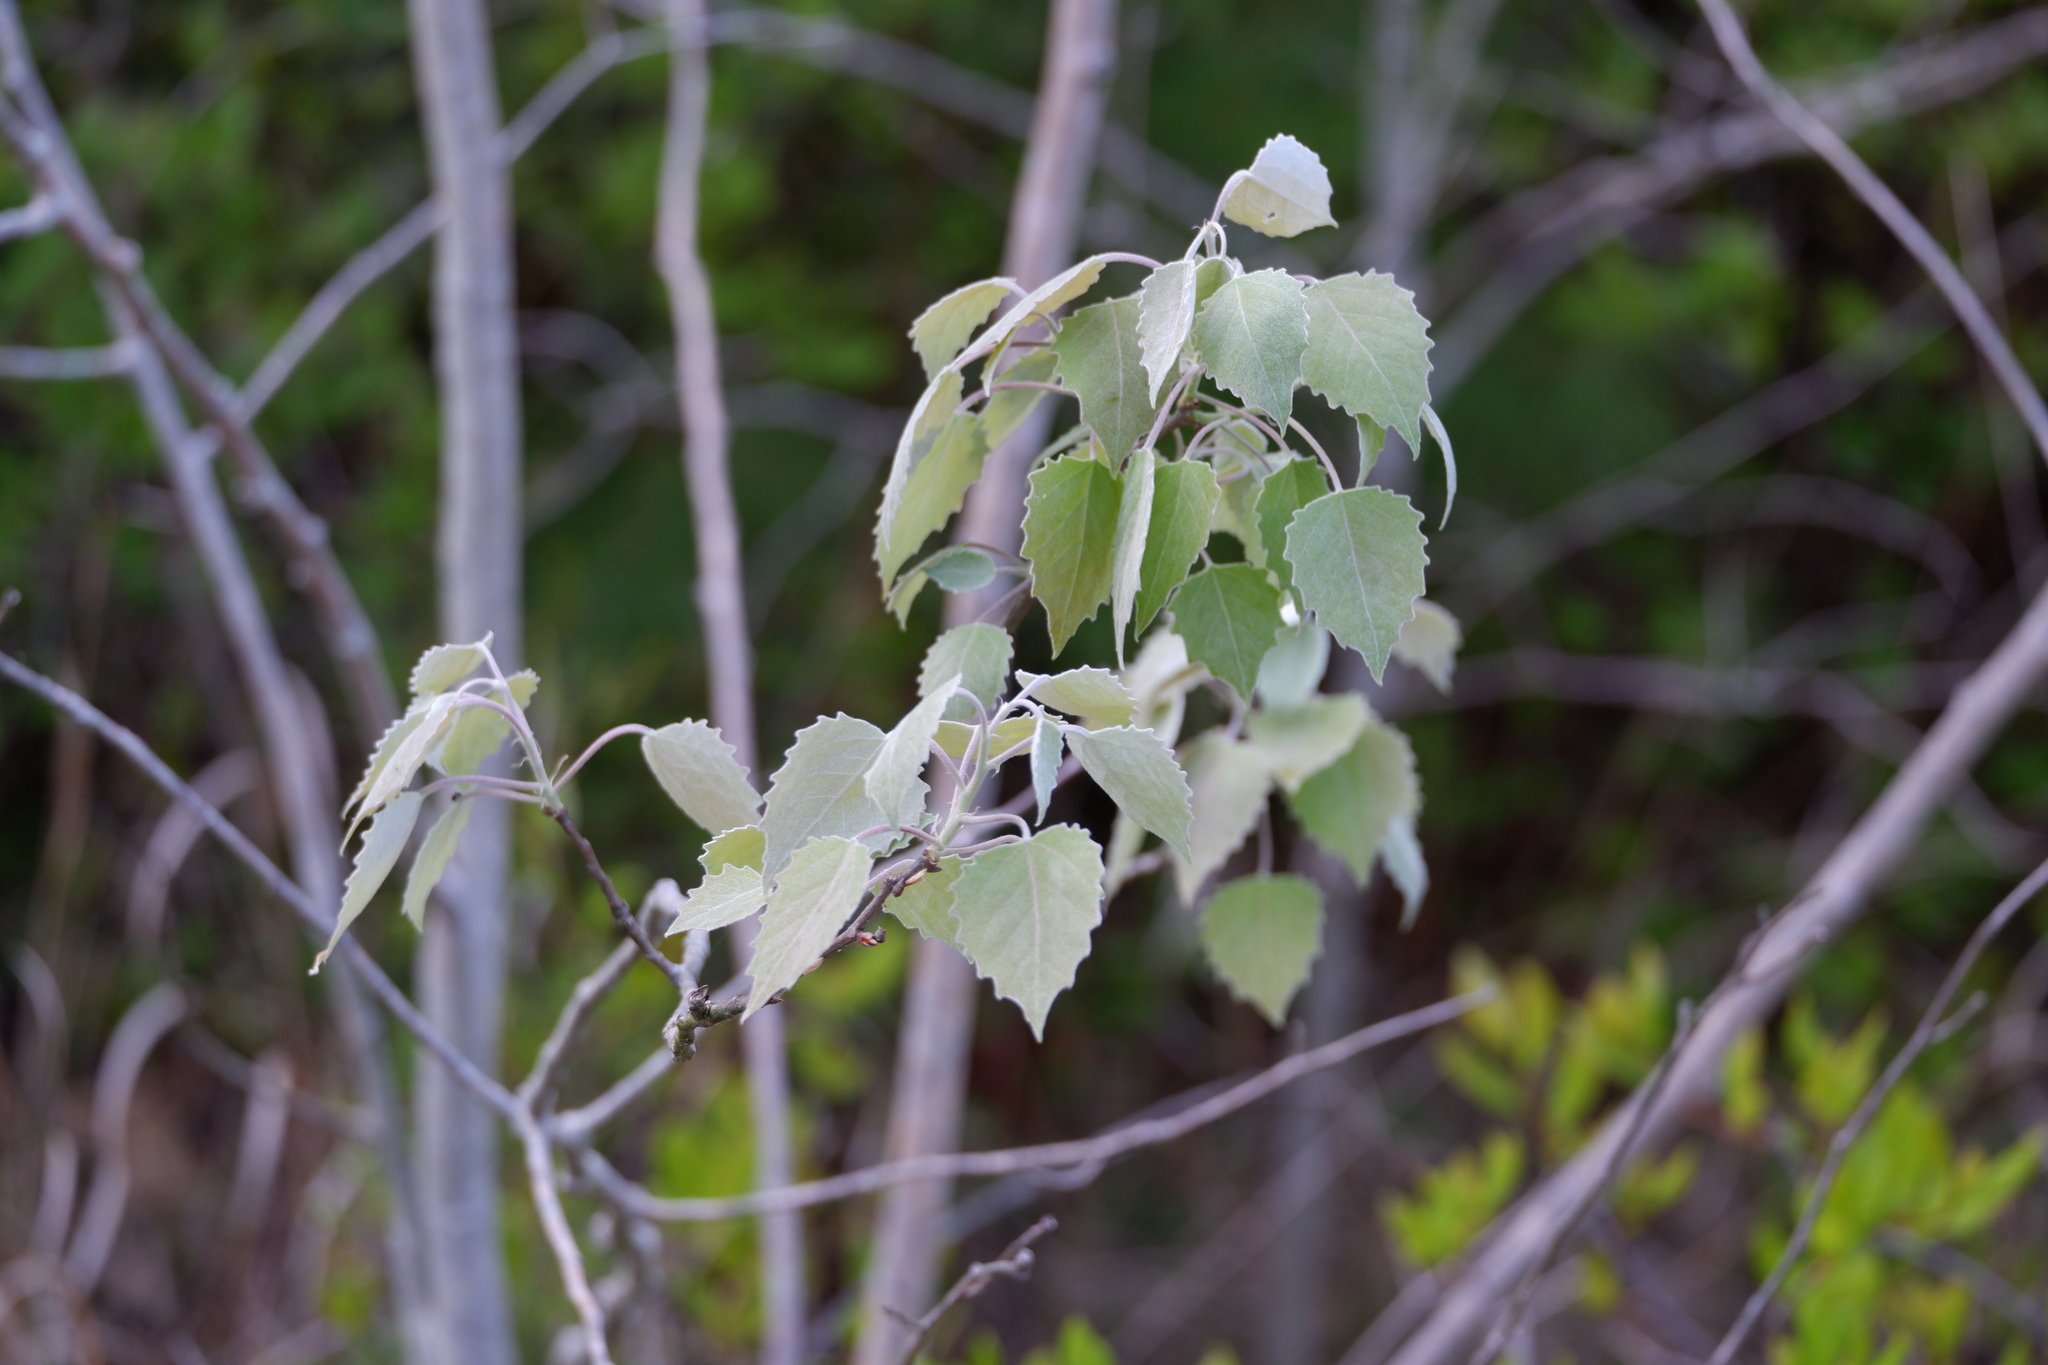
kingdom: Plantae
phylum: Tracheophyta
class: Magnoliopsida
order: Malpighiales
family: Salicaceae
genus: Populus
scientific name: Populus grandidentata
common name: Bigtooth aspen
